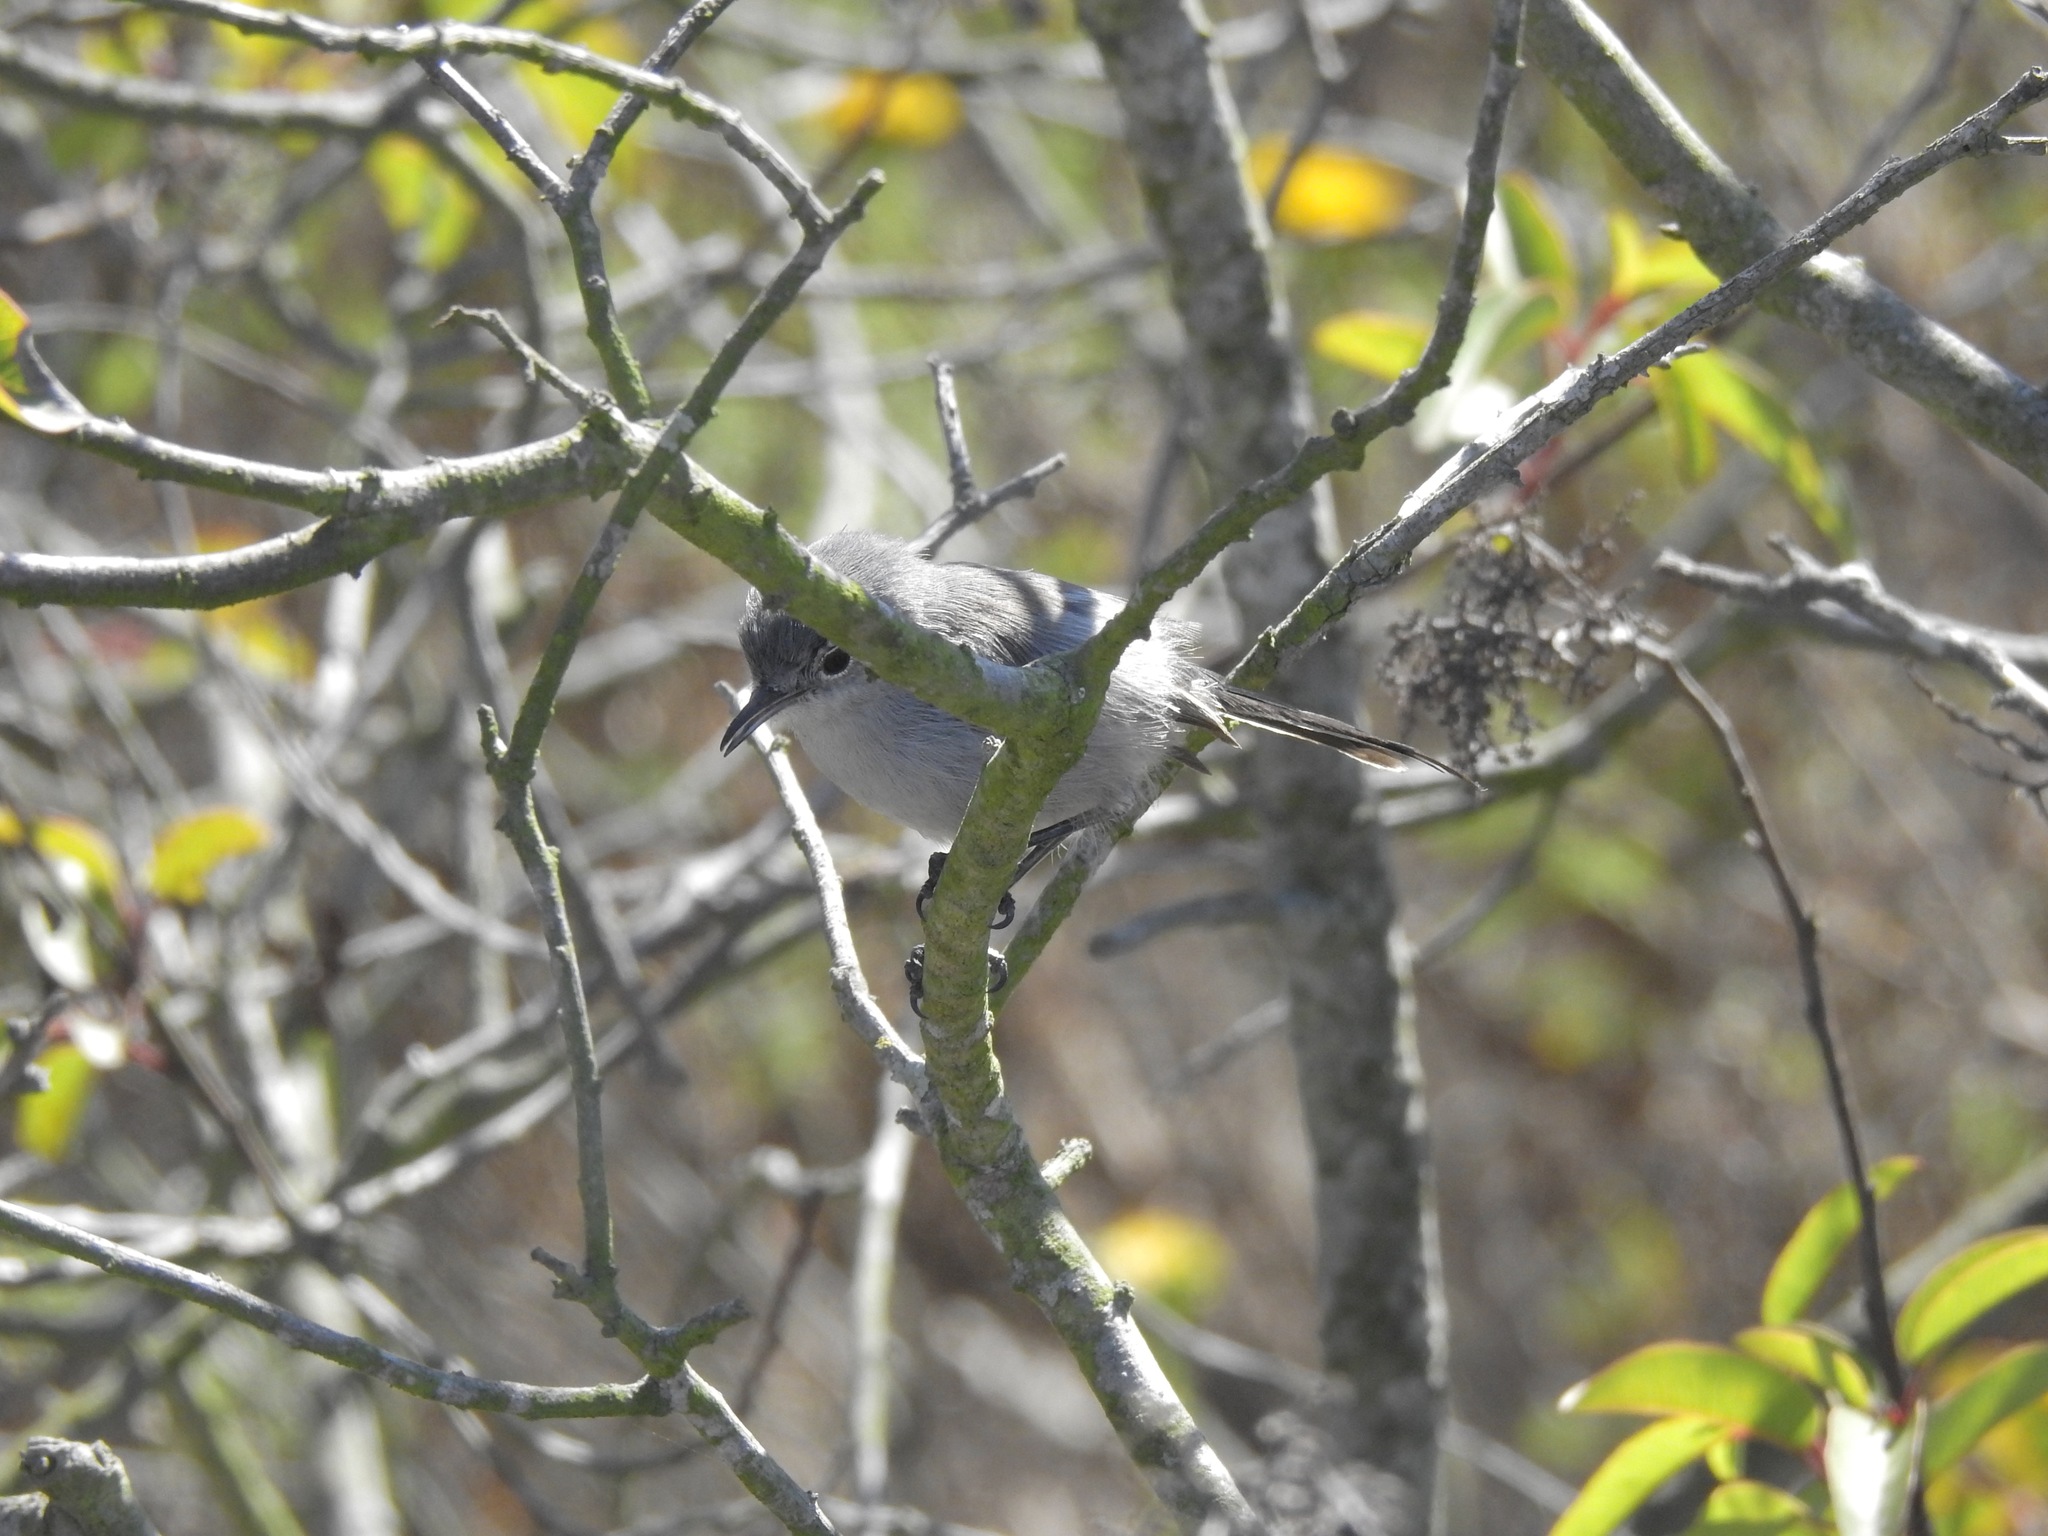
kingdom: Animalia
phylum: Chordata
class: Aves
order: Passeriformes
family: Polioptilidae
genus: Polioptila
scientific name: Polioptila californica
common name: California gnatcatcher
